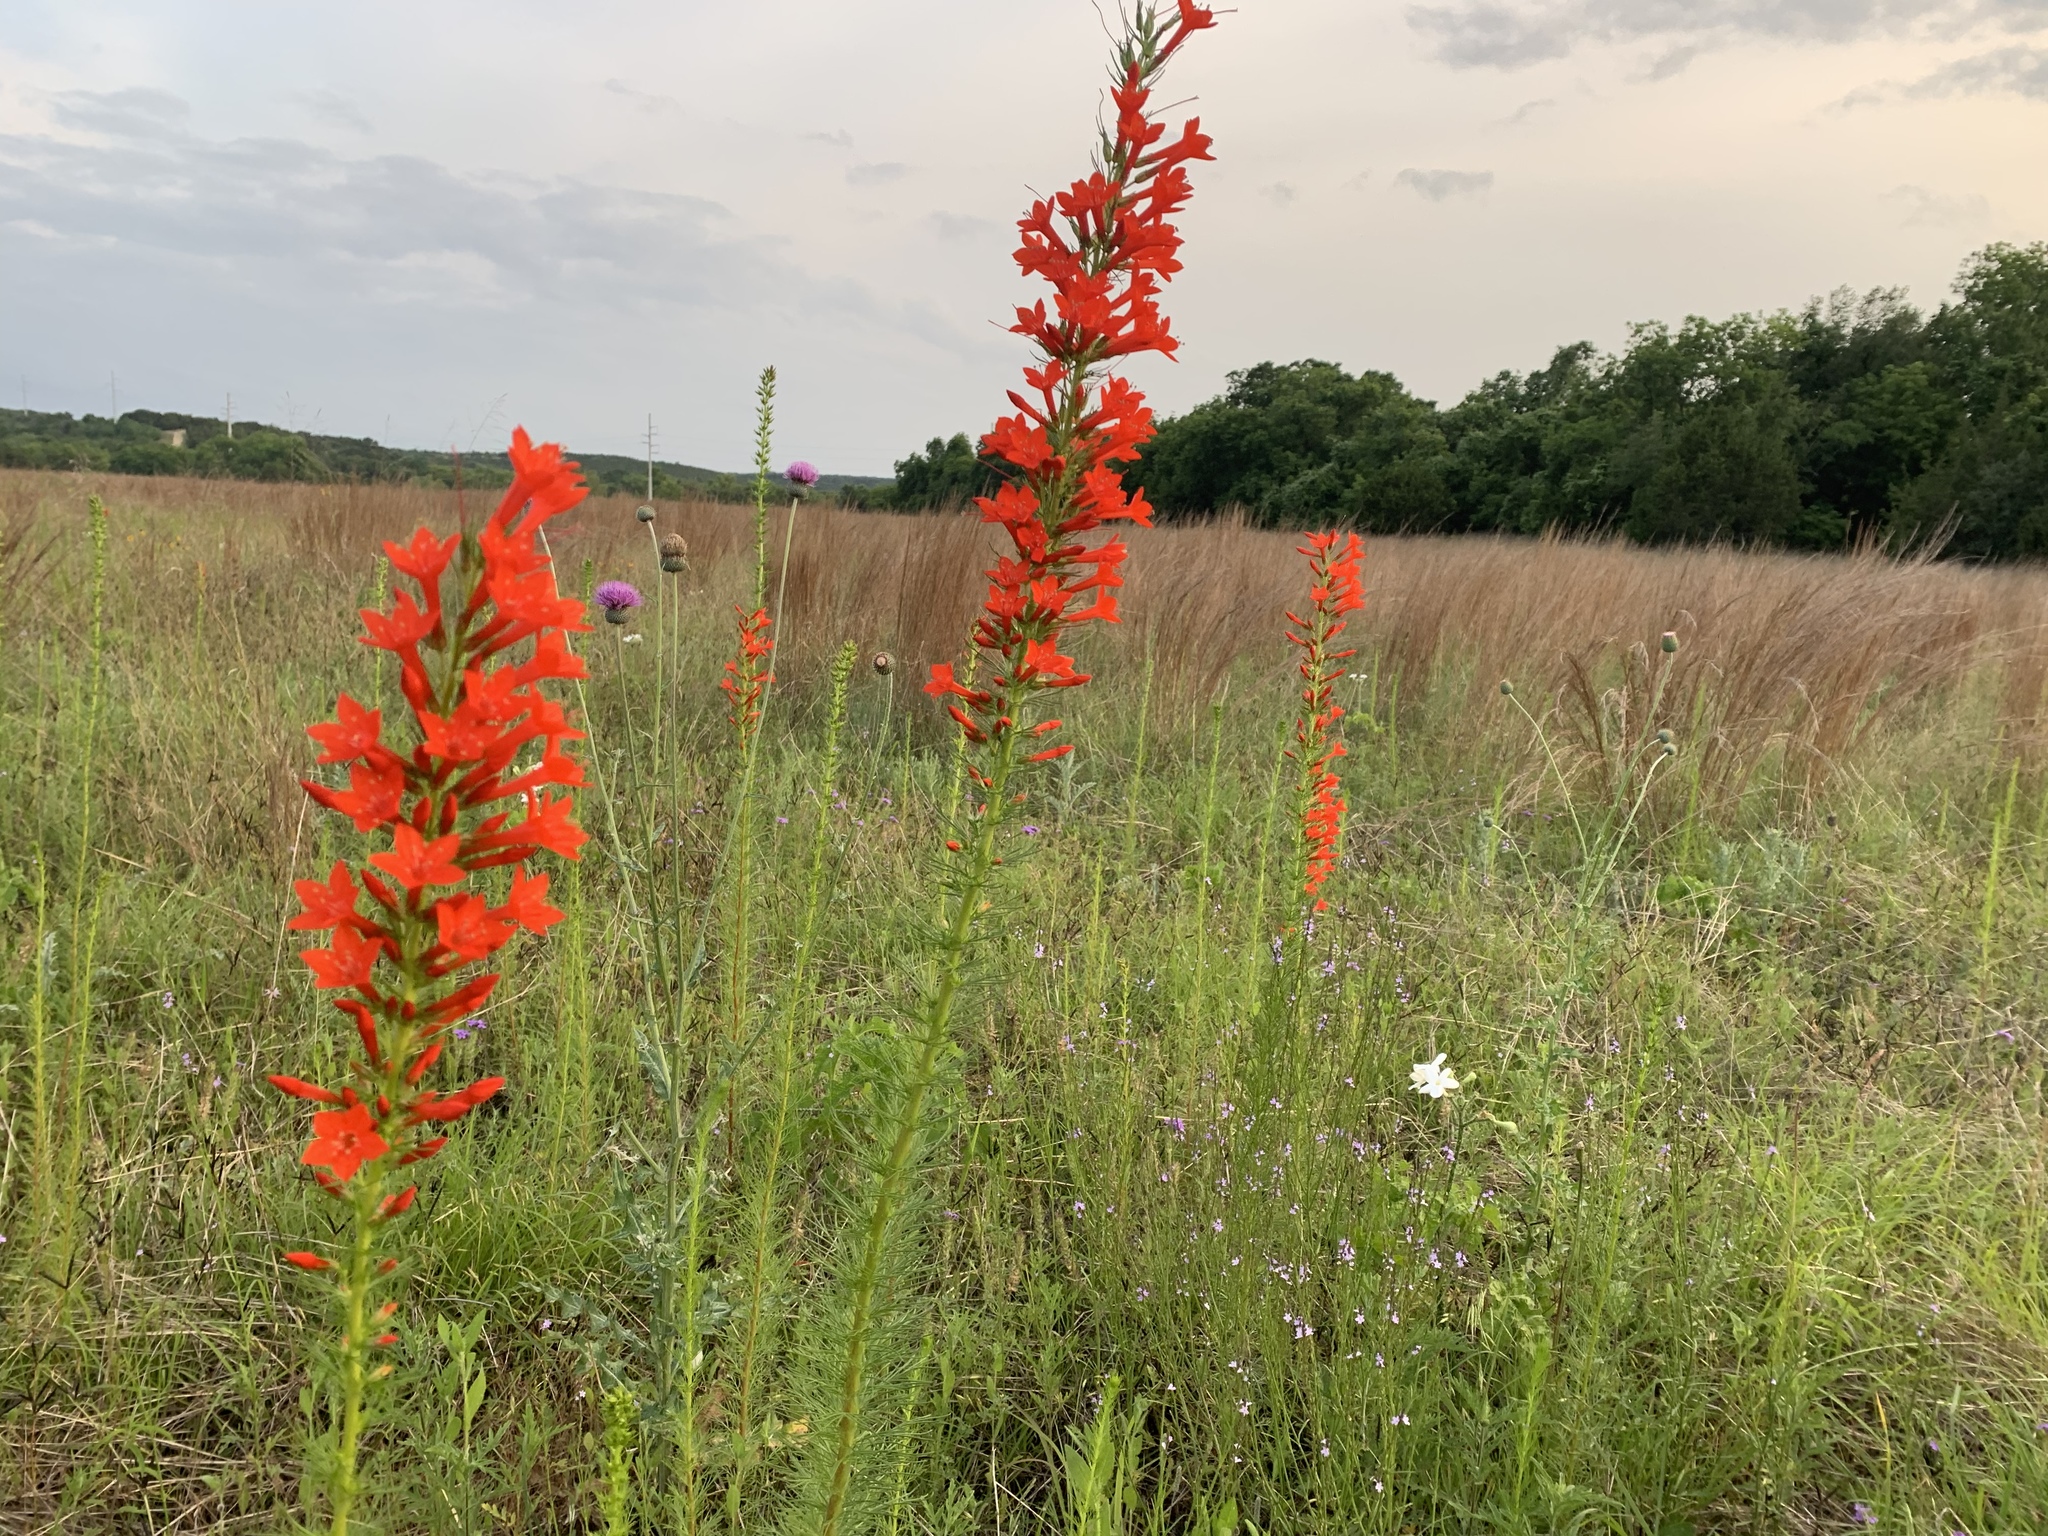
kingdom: Plantae
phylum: Tracheophyta
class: Magnoliopsida
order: Ericales
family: Polemoniaceae
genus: Ipomopsis
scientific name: Ipomopsis rubra
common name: Skyrocket
